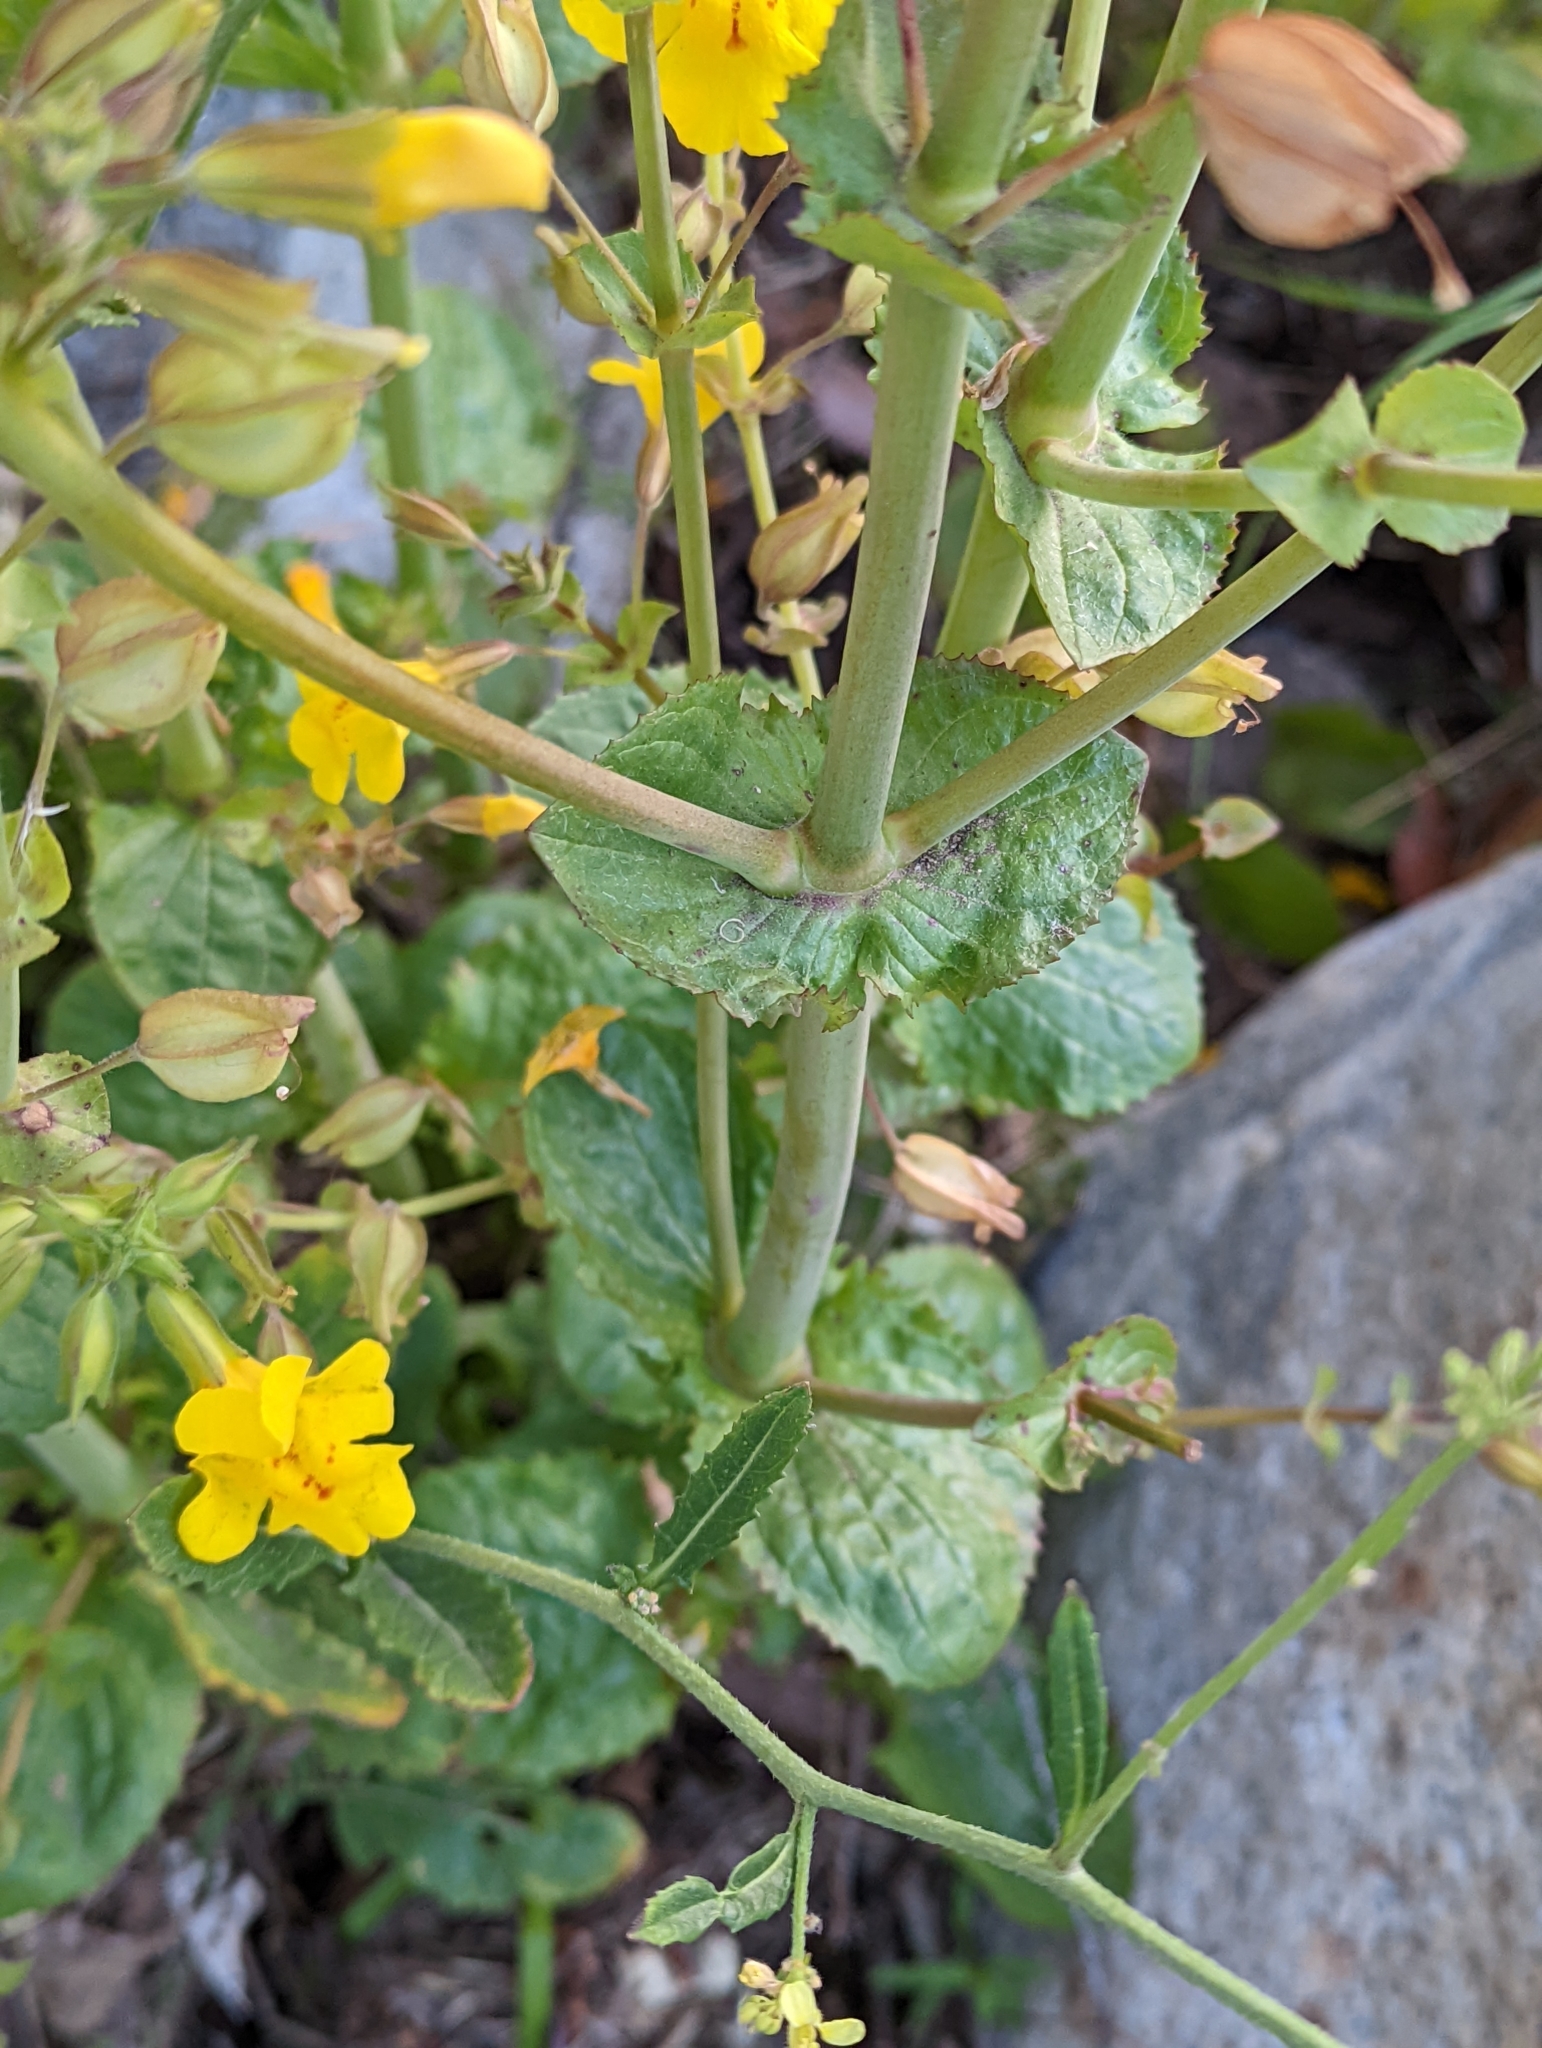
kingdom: Plantae
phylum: Tracheophyta
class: Magnoliopsida
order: Lamiales
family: Phrymaceae
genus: Erythranthe
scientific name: Erythranthe guttata
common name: Monkeyflower
